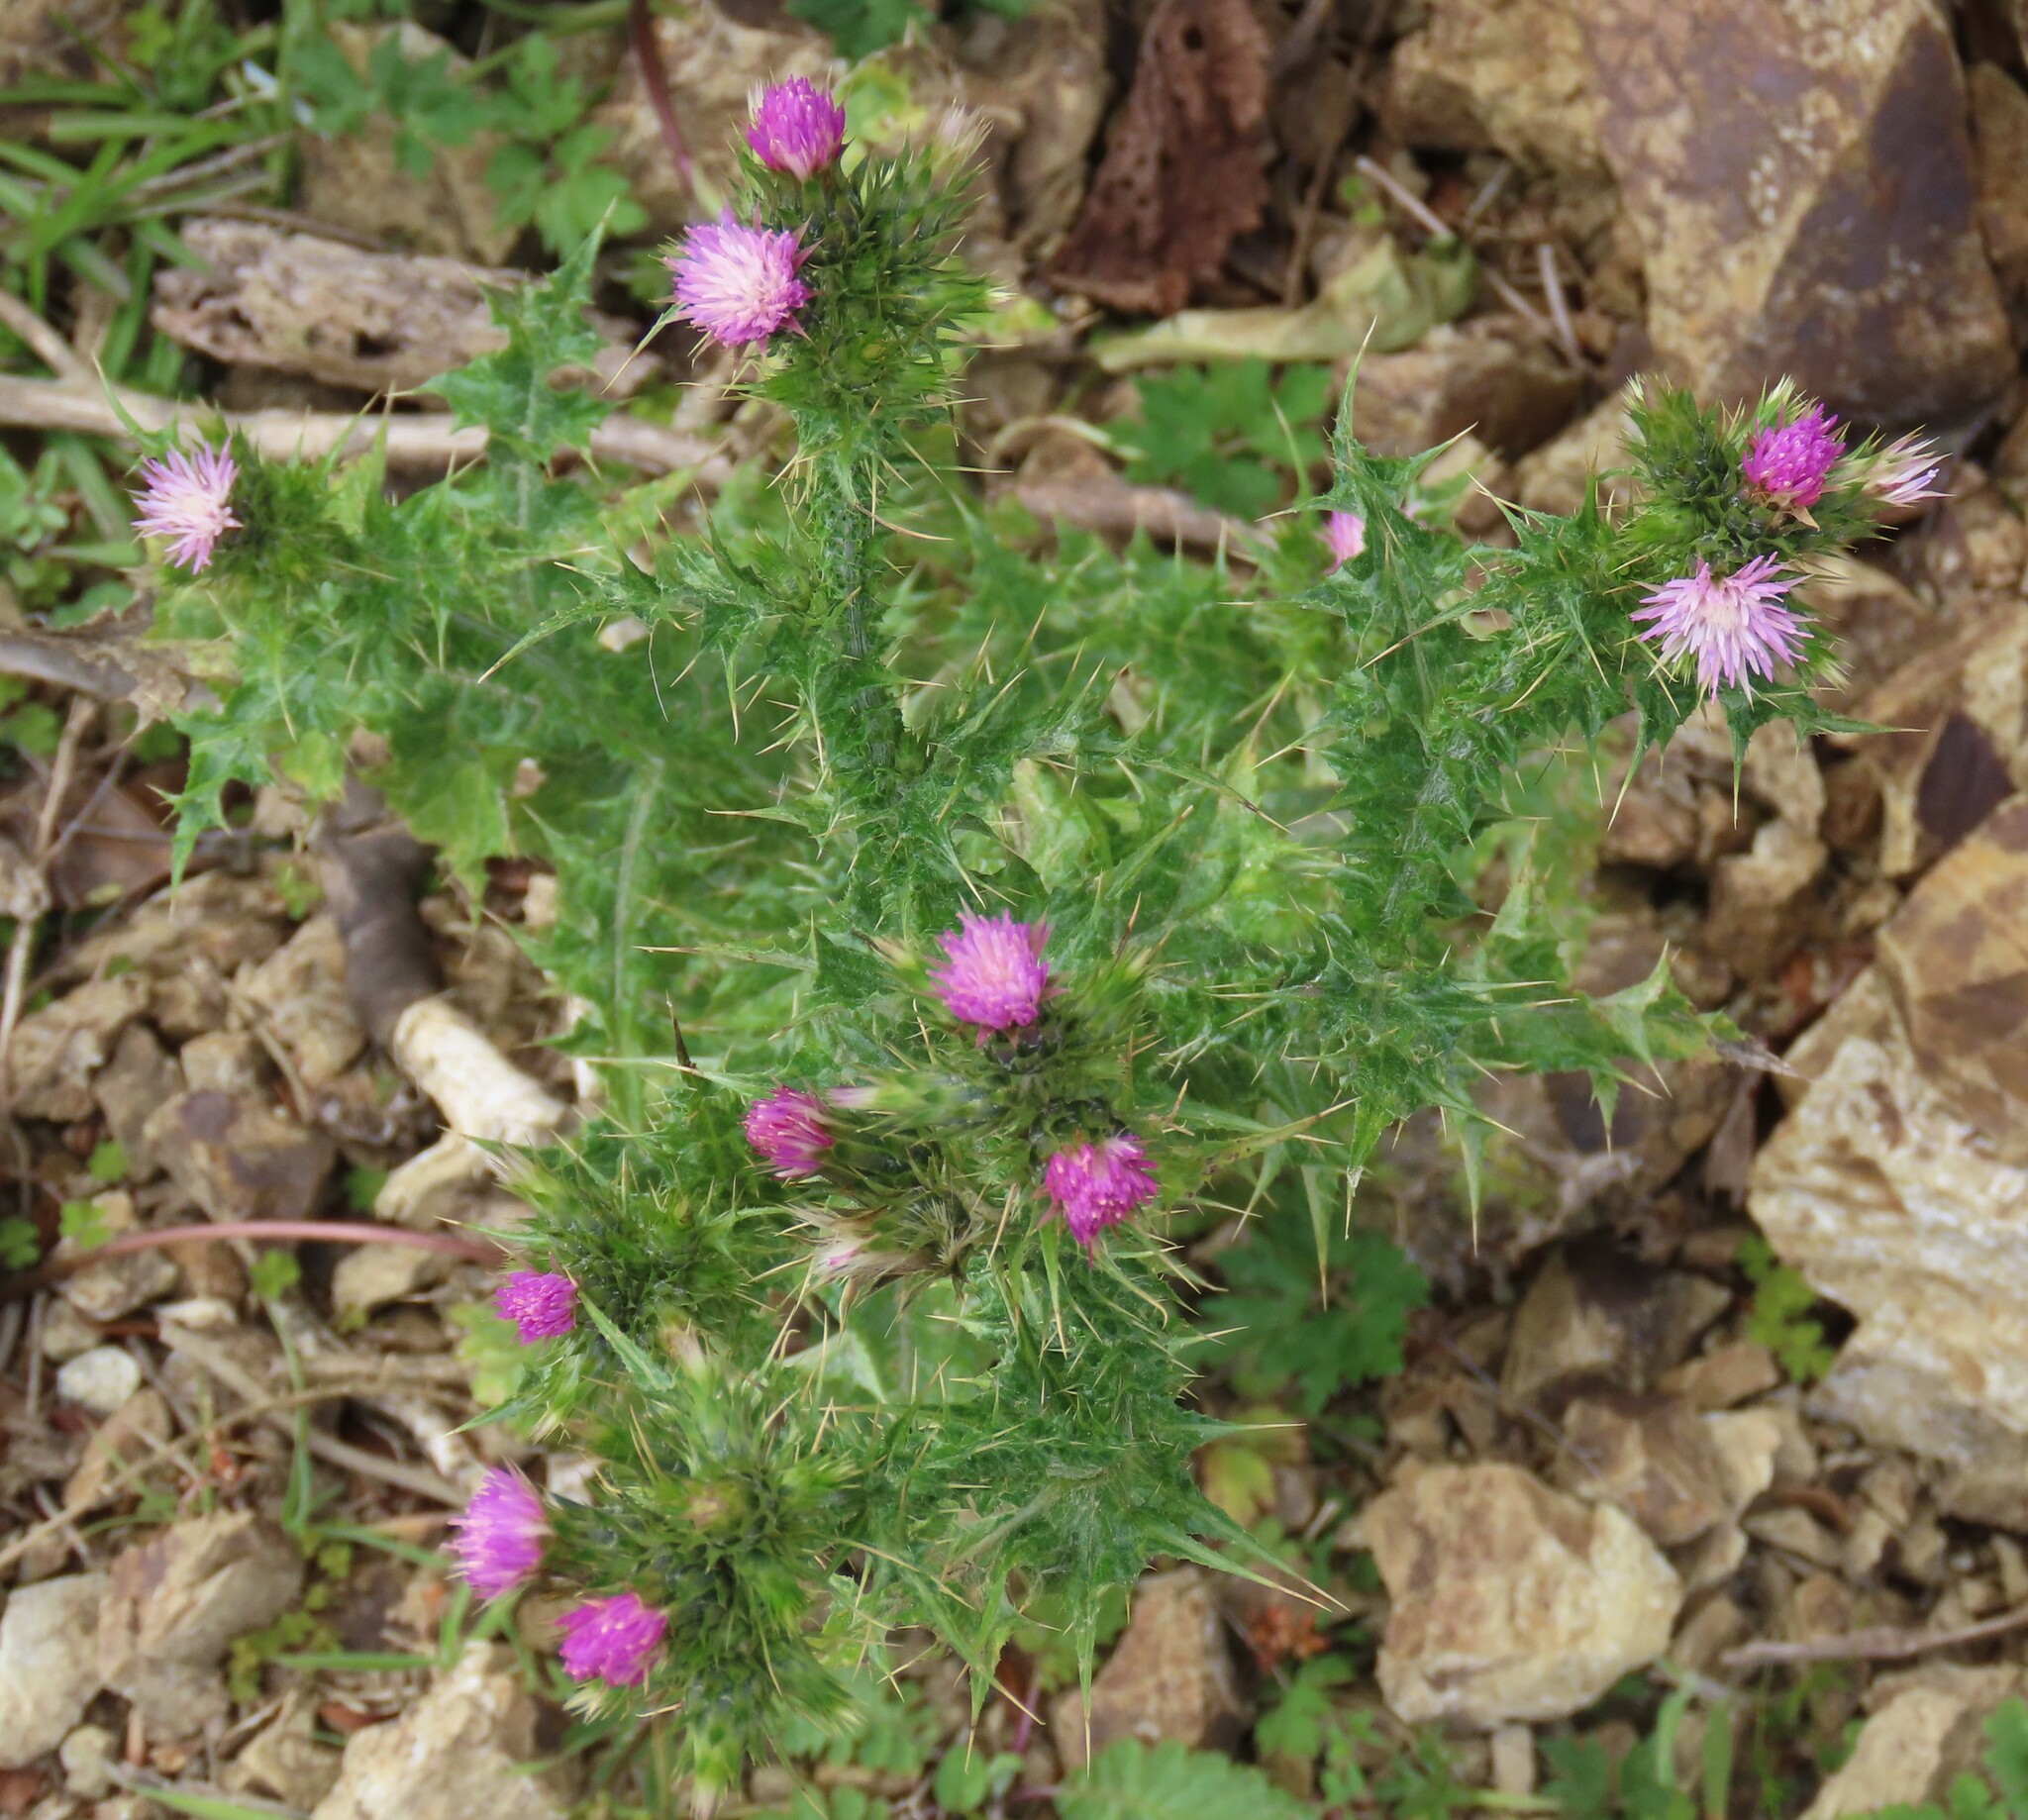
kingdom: Plantae
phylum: Tracheophyta
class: Magnoliopsida
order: Asterales
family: Asteraceae
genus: Carduus
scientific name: Carduus tenuiflorus
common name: Slender thistle
